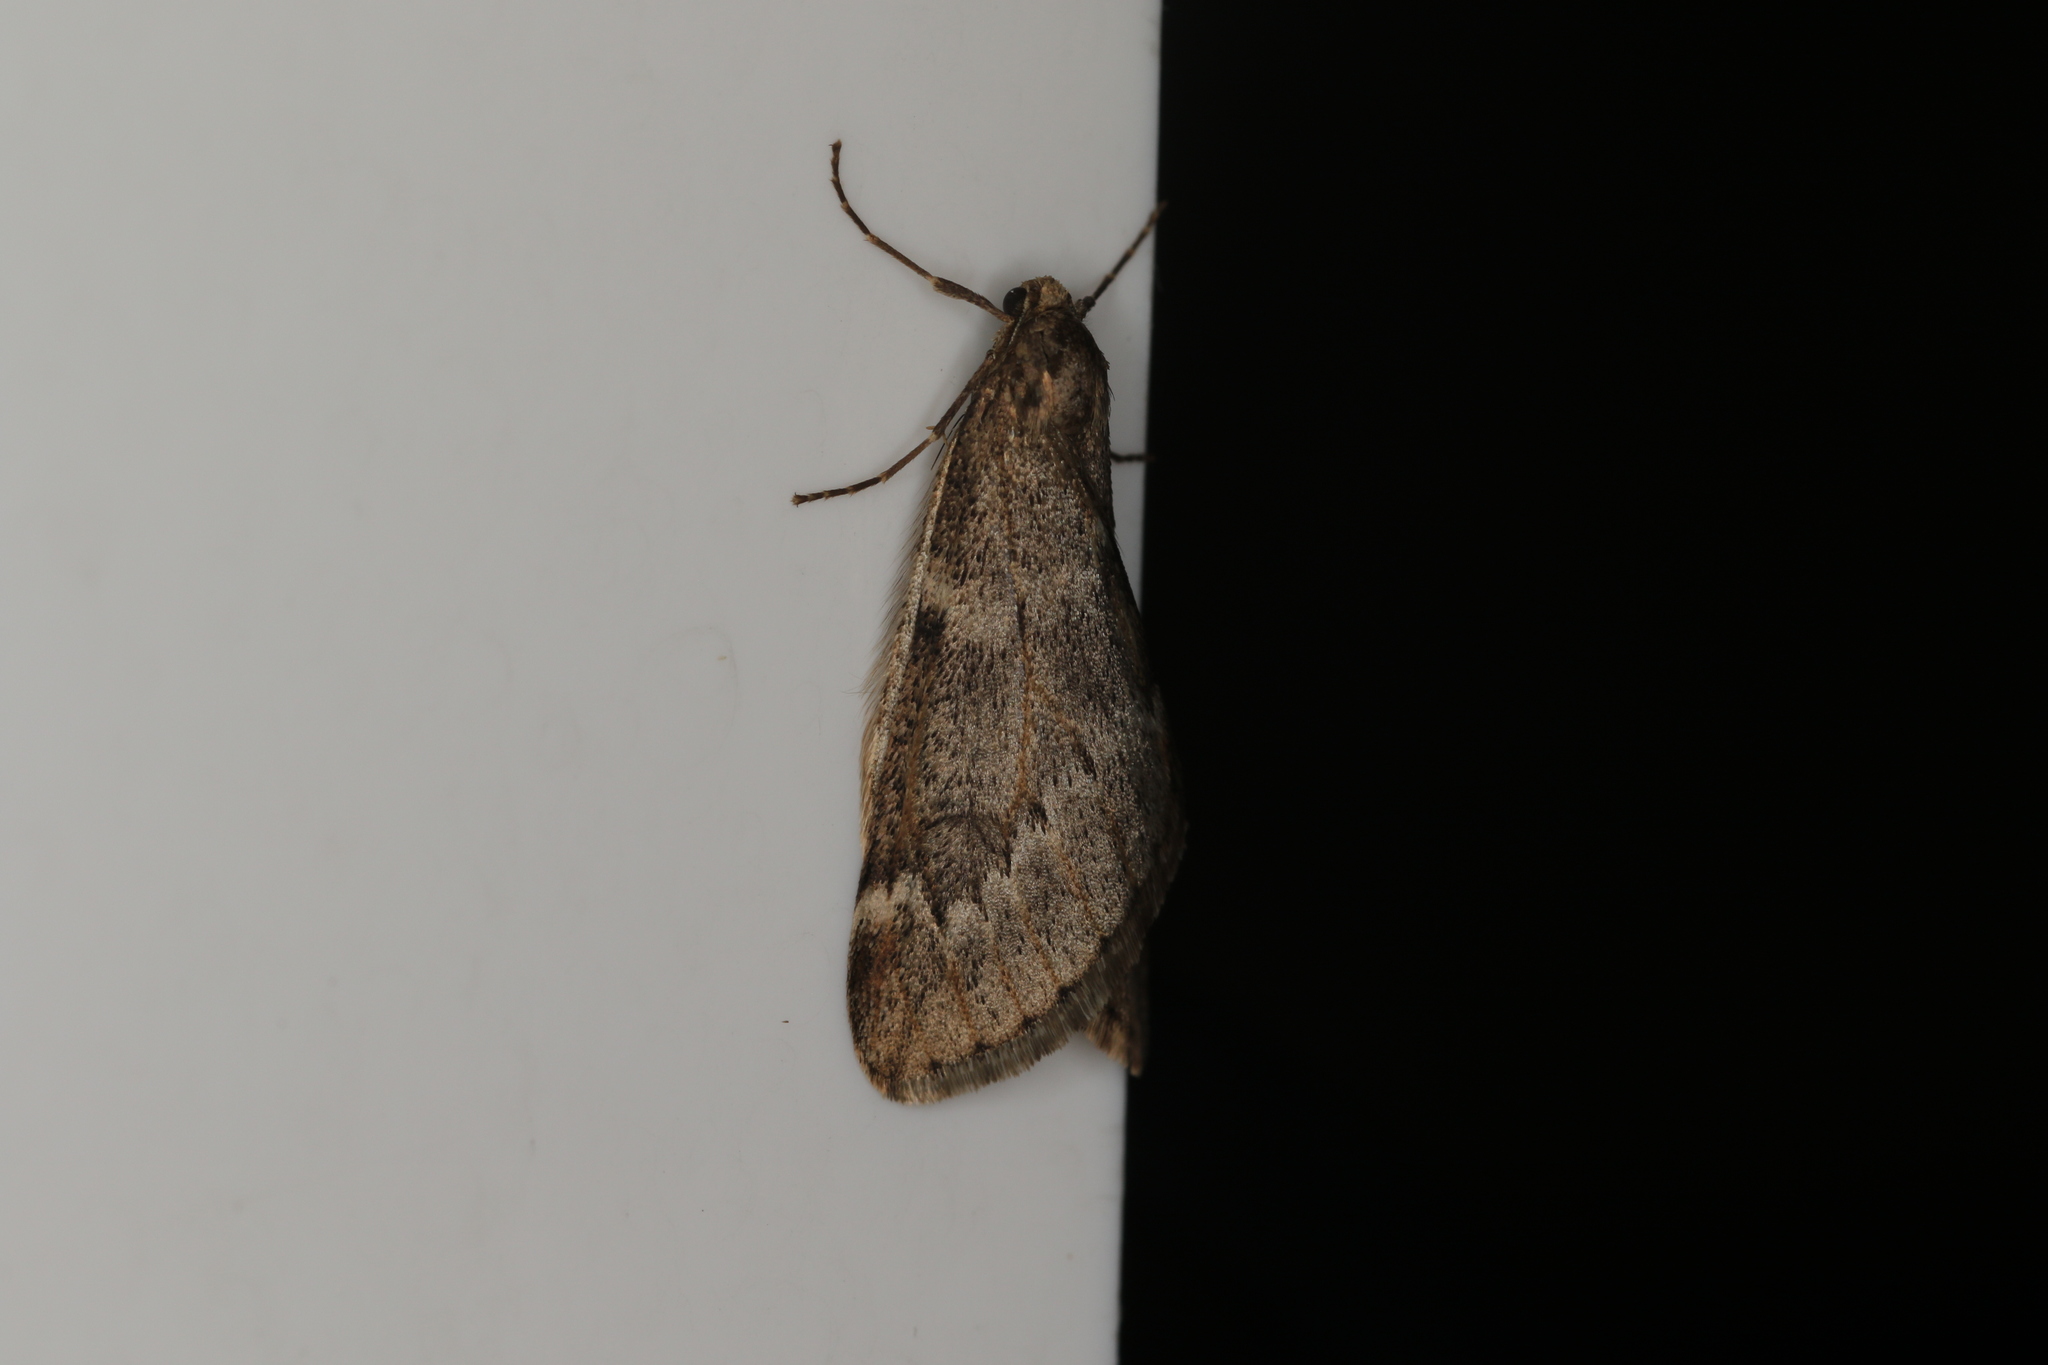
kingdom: Animalia
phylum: Arthropoda
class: Insecta
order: Lepidoptera
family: Geometridae
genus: Alsophila
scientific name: Alsophila aescularia
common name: March moth
